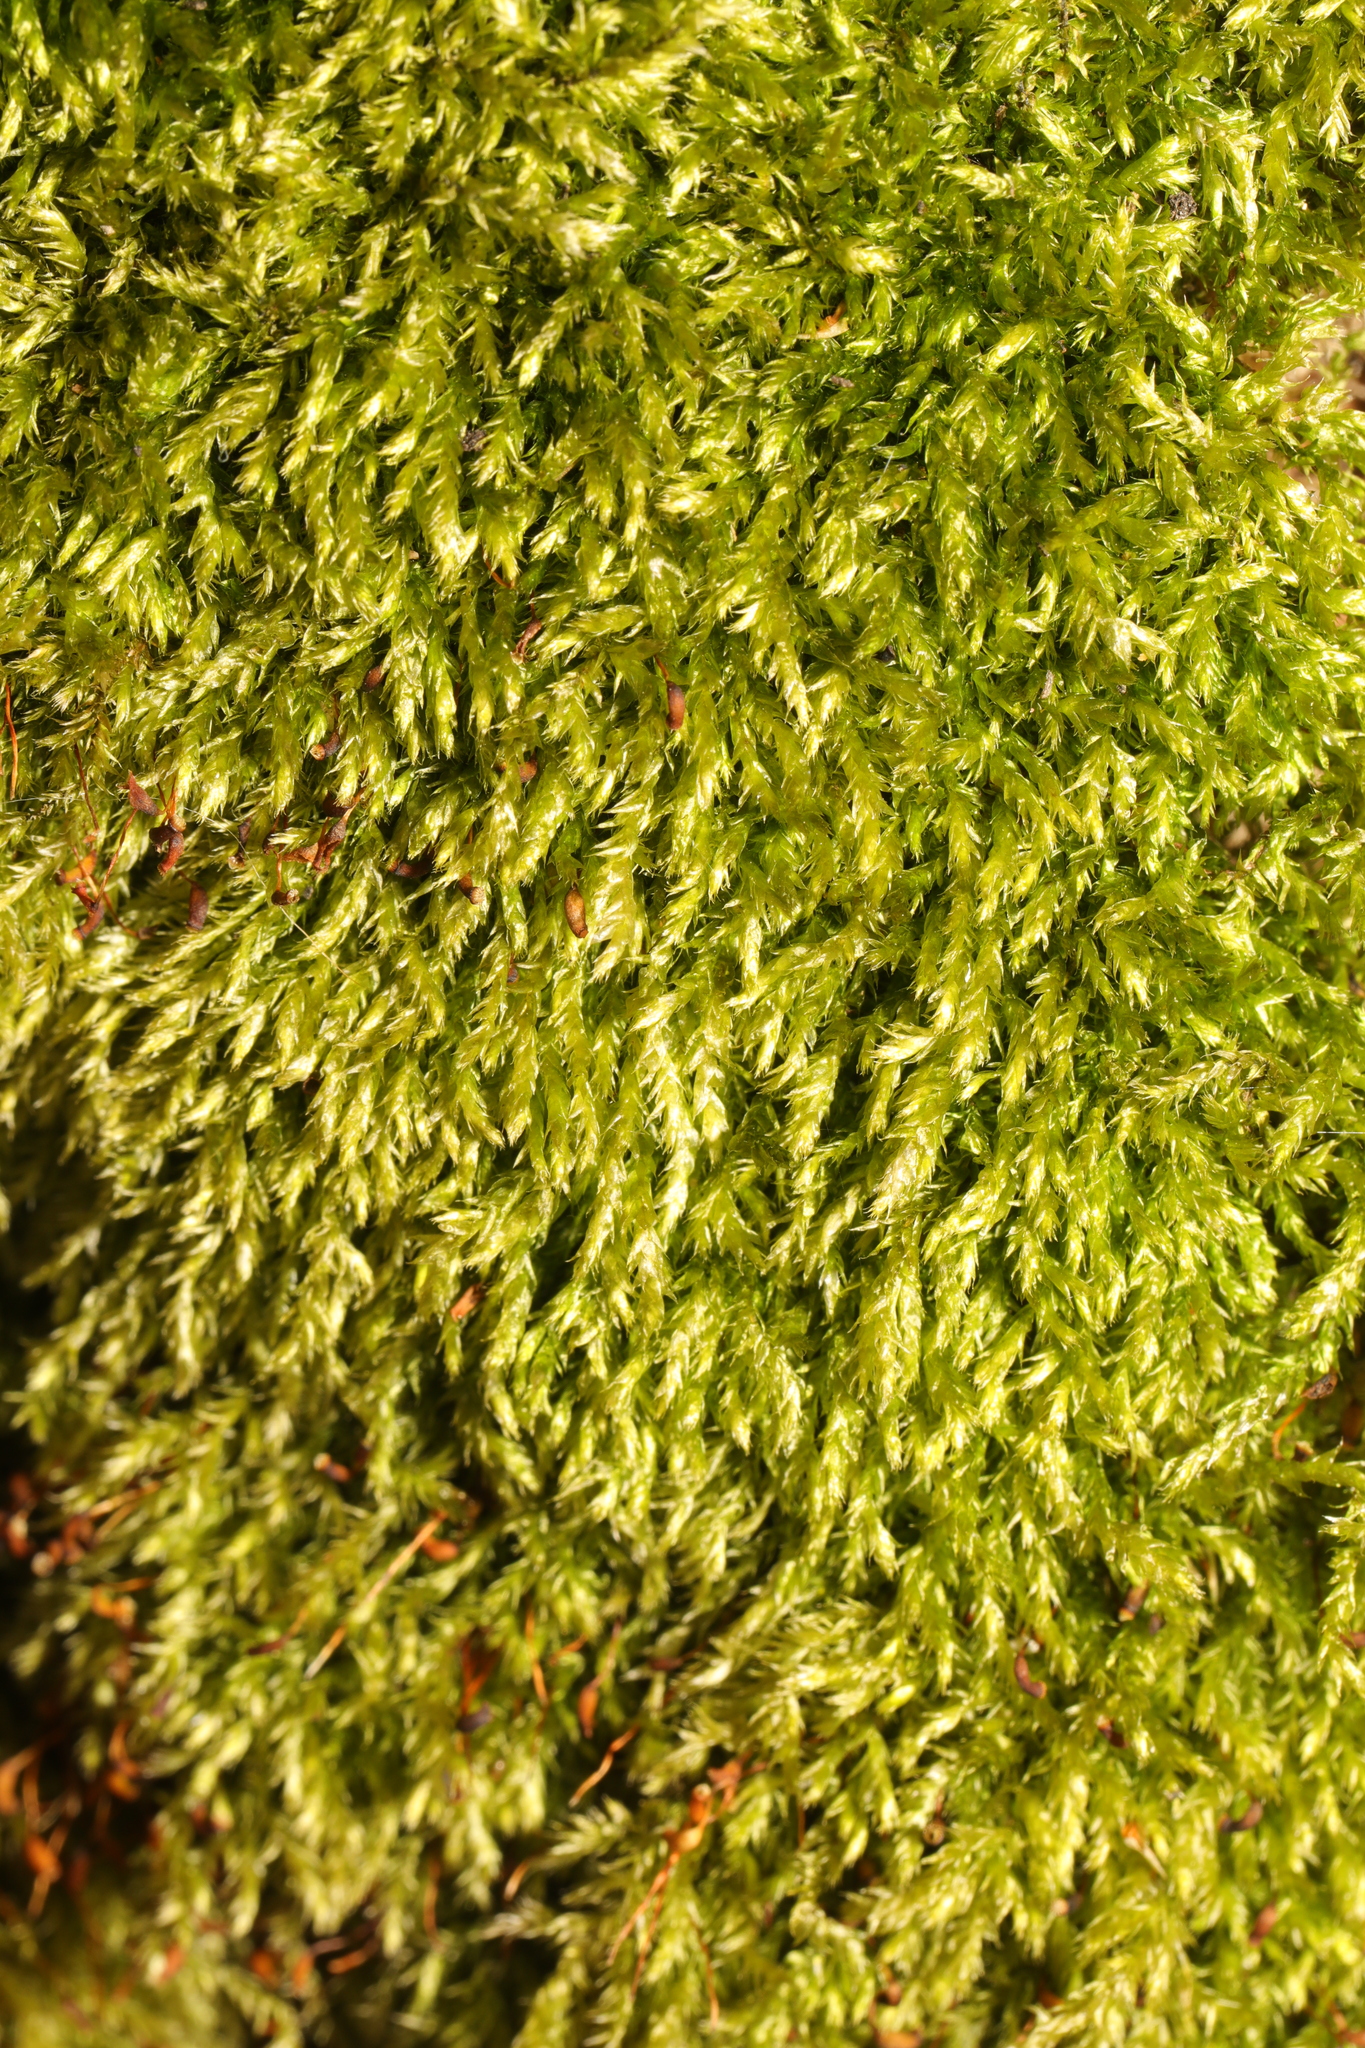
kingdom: Plantae
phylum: Bryophyta
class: Bryopsida
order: Hypnales
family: Brachytheciaceae
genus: Brachythecium
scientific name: Brachythecium rutabulum
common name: Rough-stalked feather-moss
